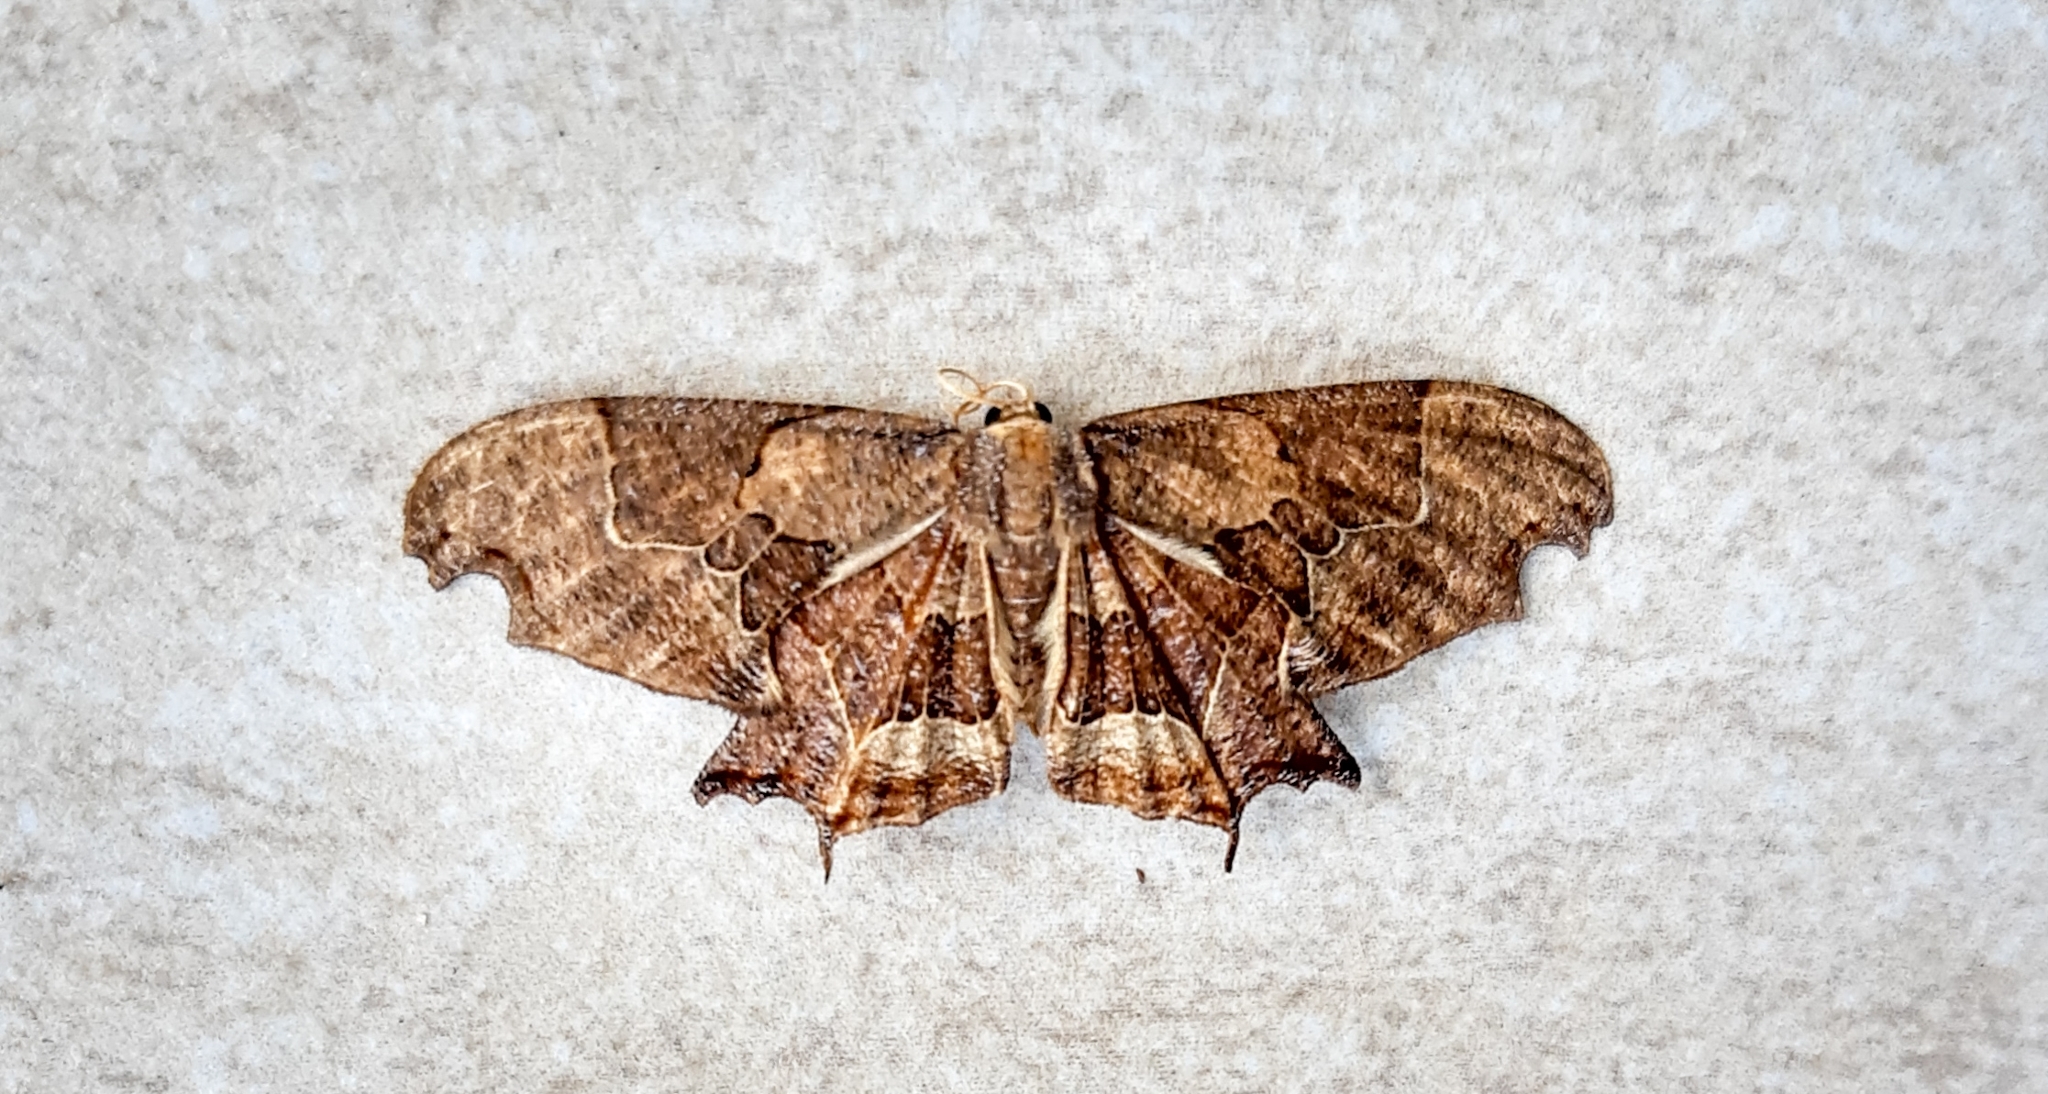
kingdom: Animalia
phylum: Arthropoda
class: Insecta
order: Lepidoptera
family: Uraniidae
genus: Epiplema
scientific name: Epiplema incendiata
